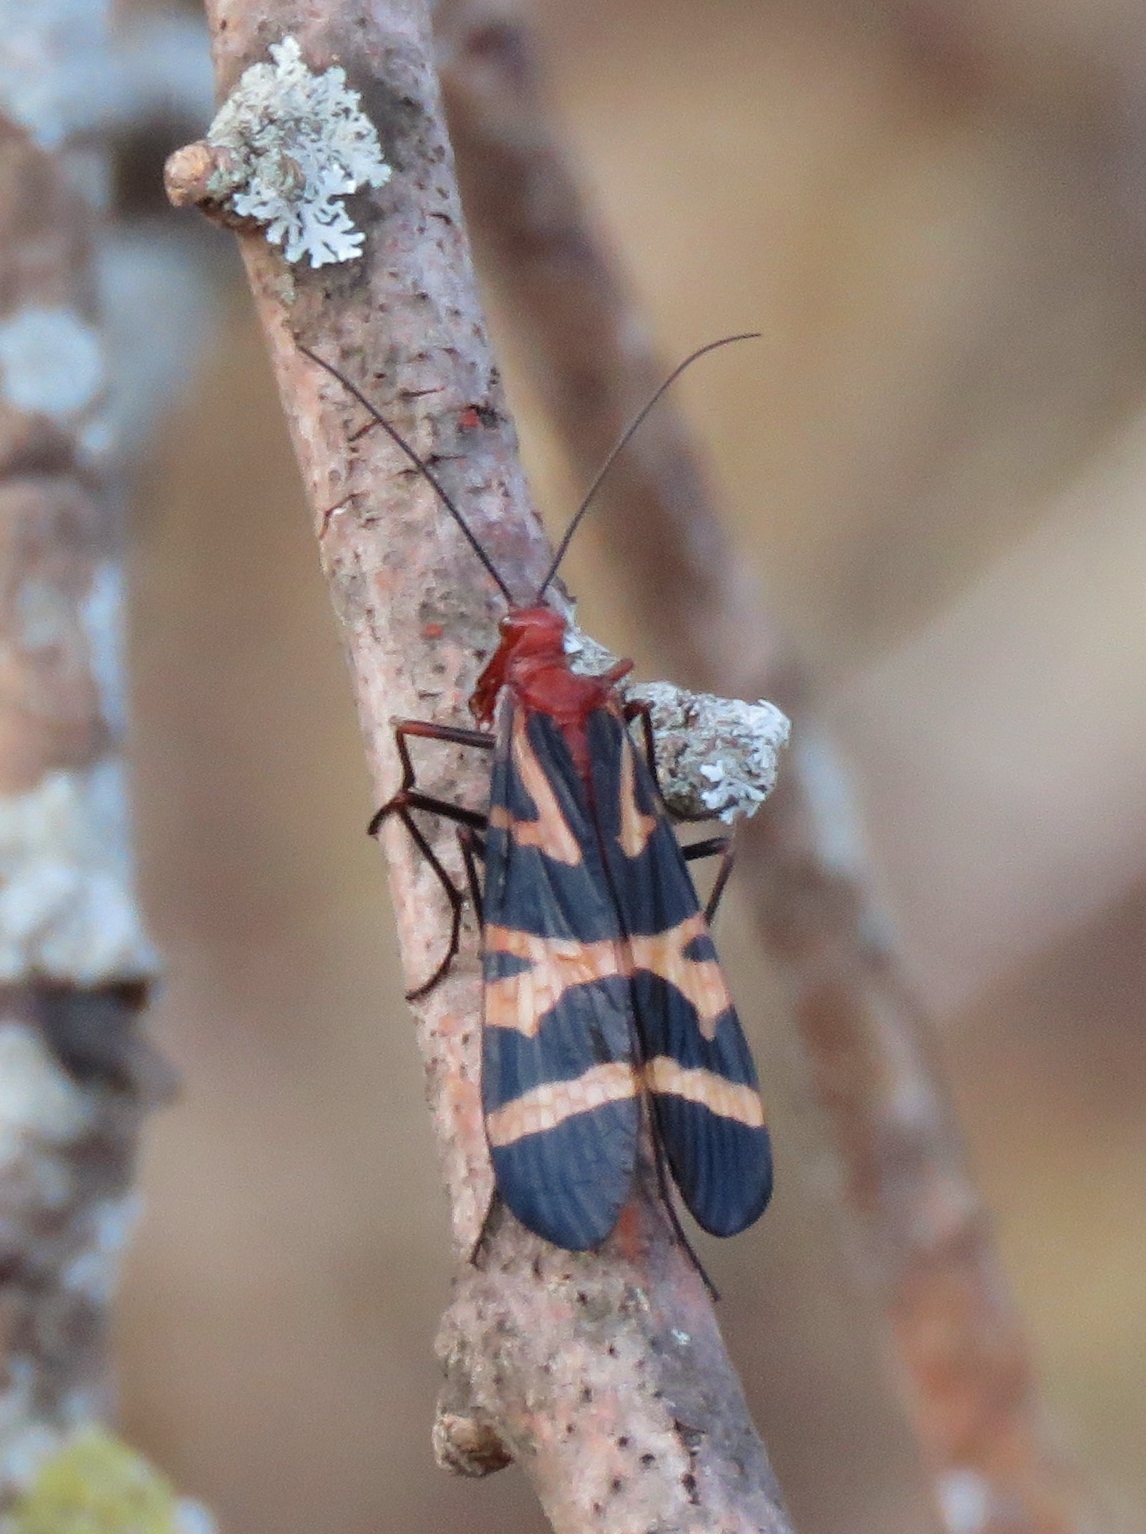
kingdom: Animalia
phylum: Arthropoda
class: Insecta
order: Mecoptera
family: Panorpidae
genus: Panorpa
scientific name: Panorpa nuptialis
